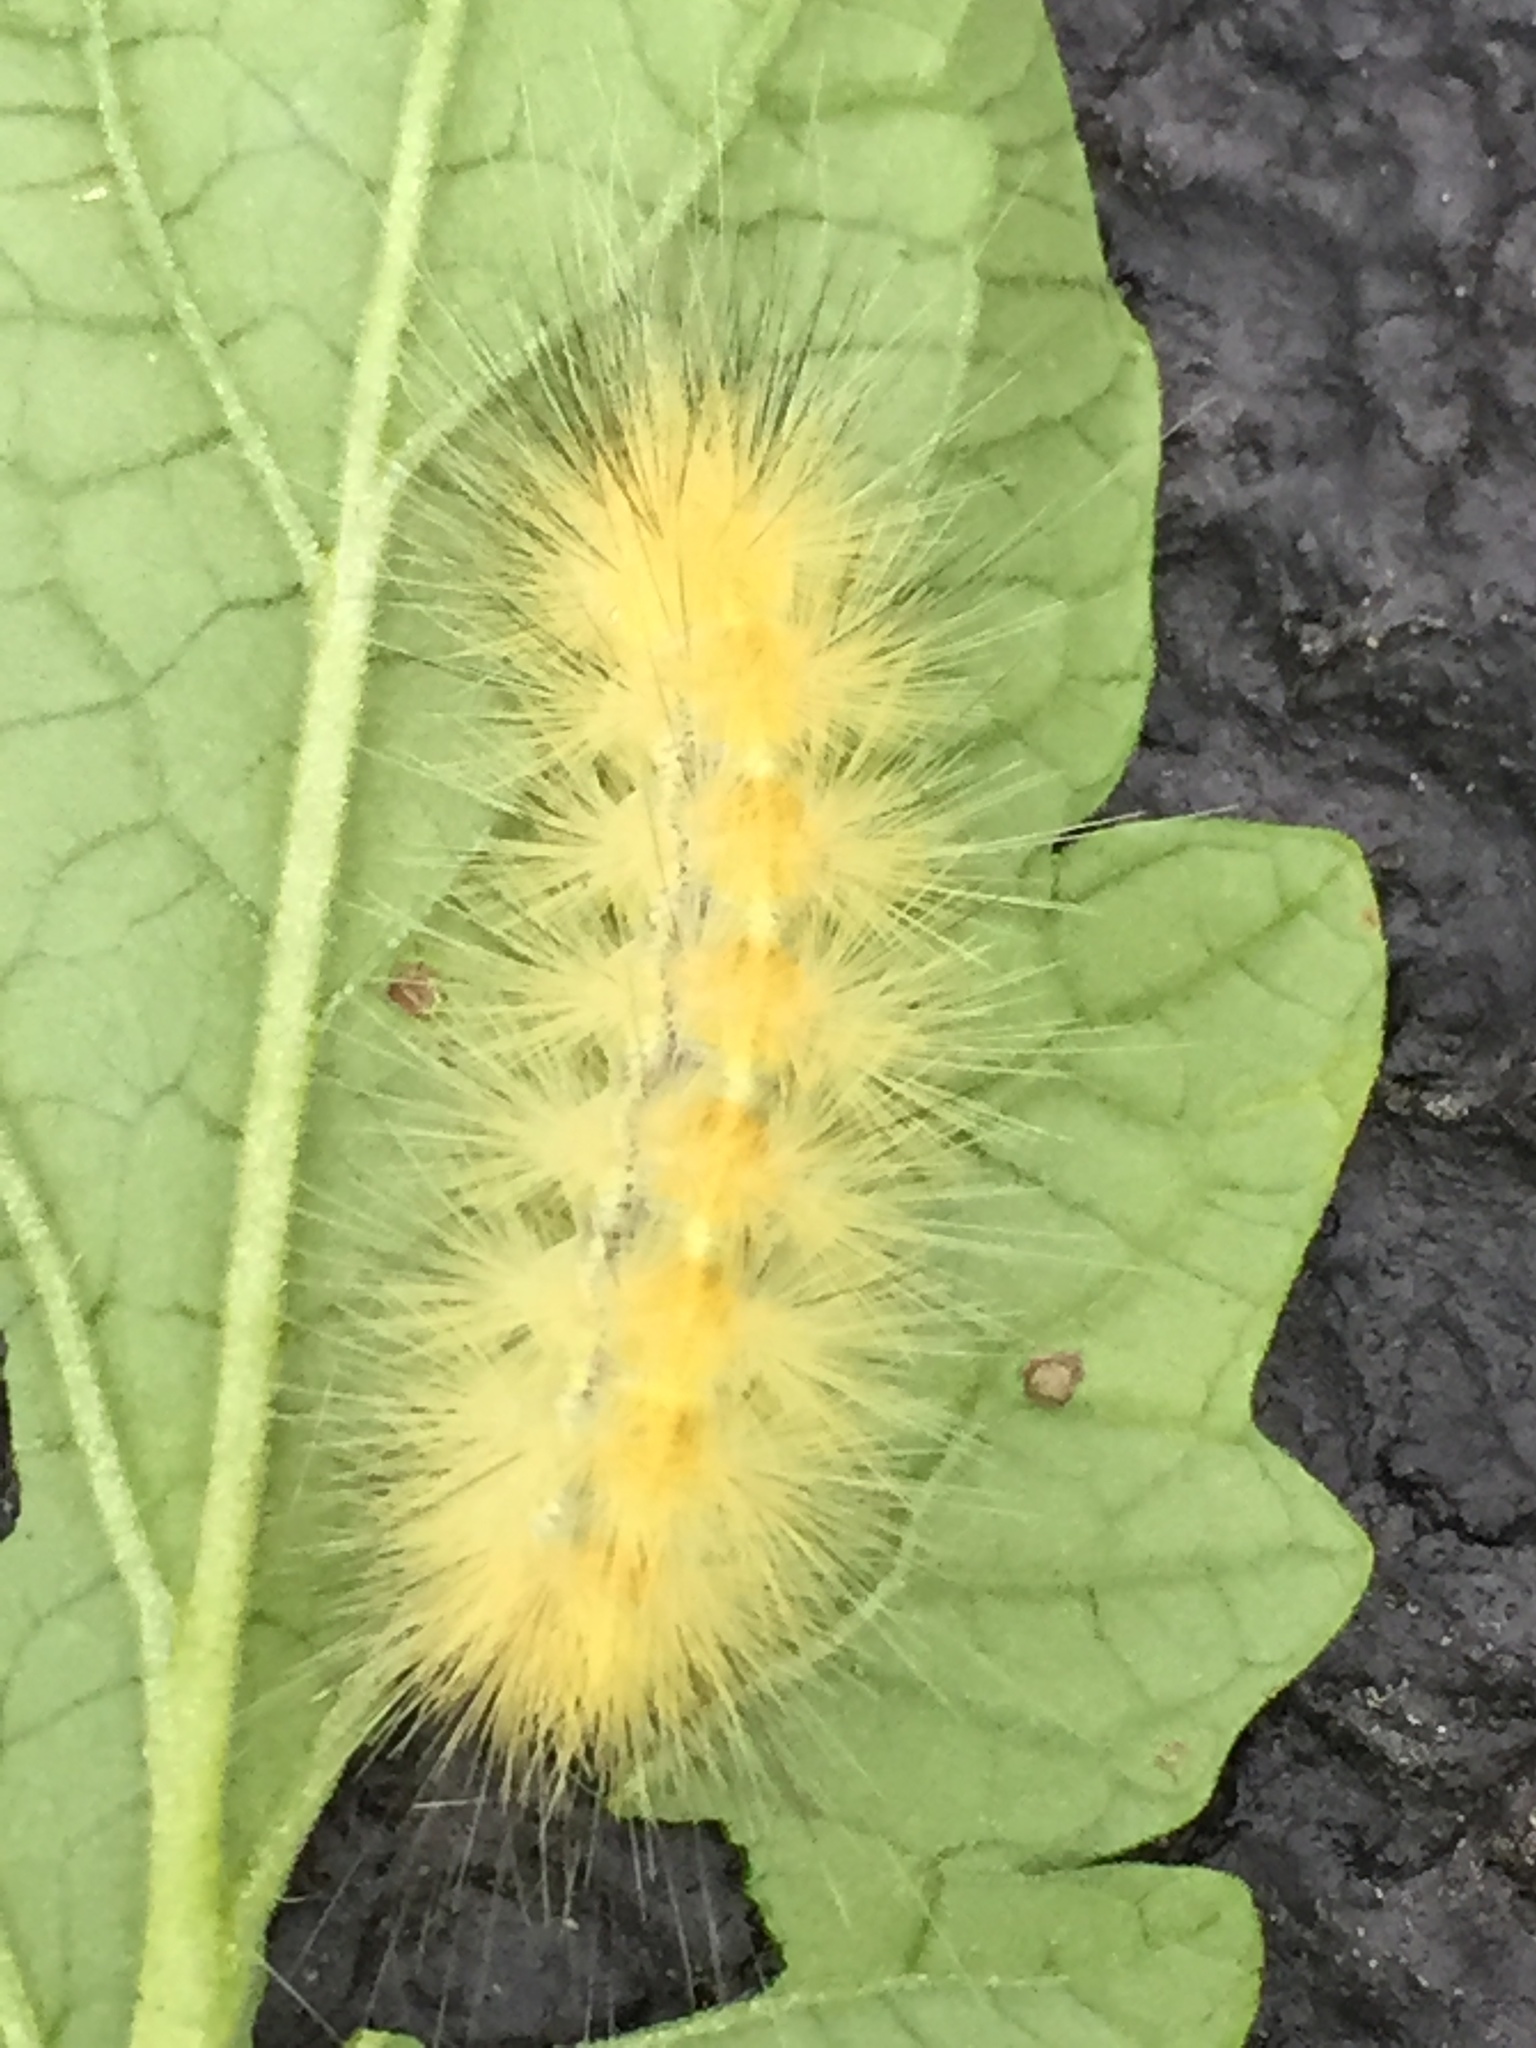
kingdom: Animalia
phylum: Arthropoda
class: Insecta
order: Lepidoptera
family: Erebidae
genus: Spilosoma
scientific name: Spilosoma virginica
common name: Virginia tiger moth
